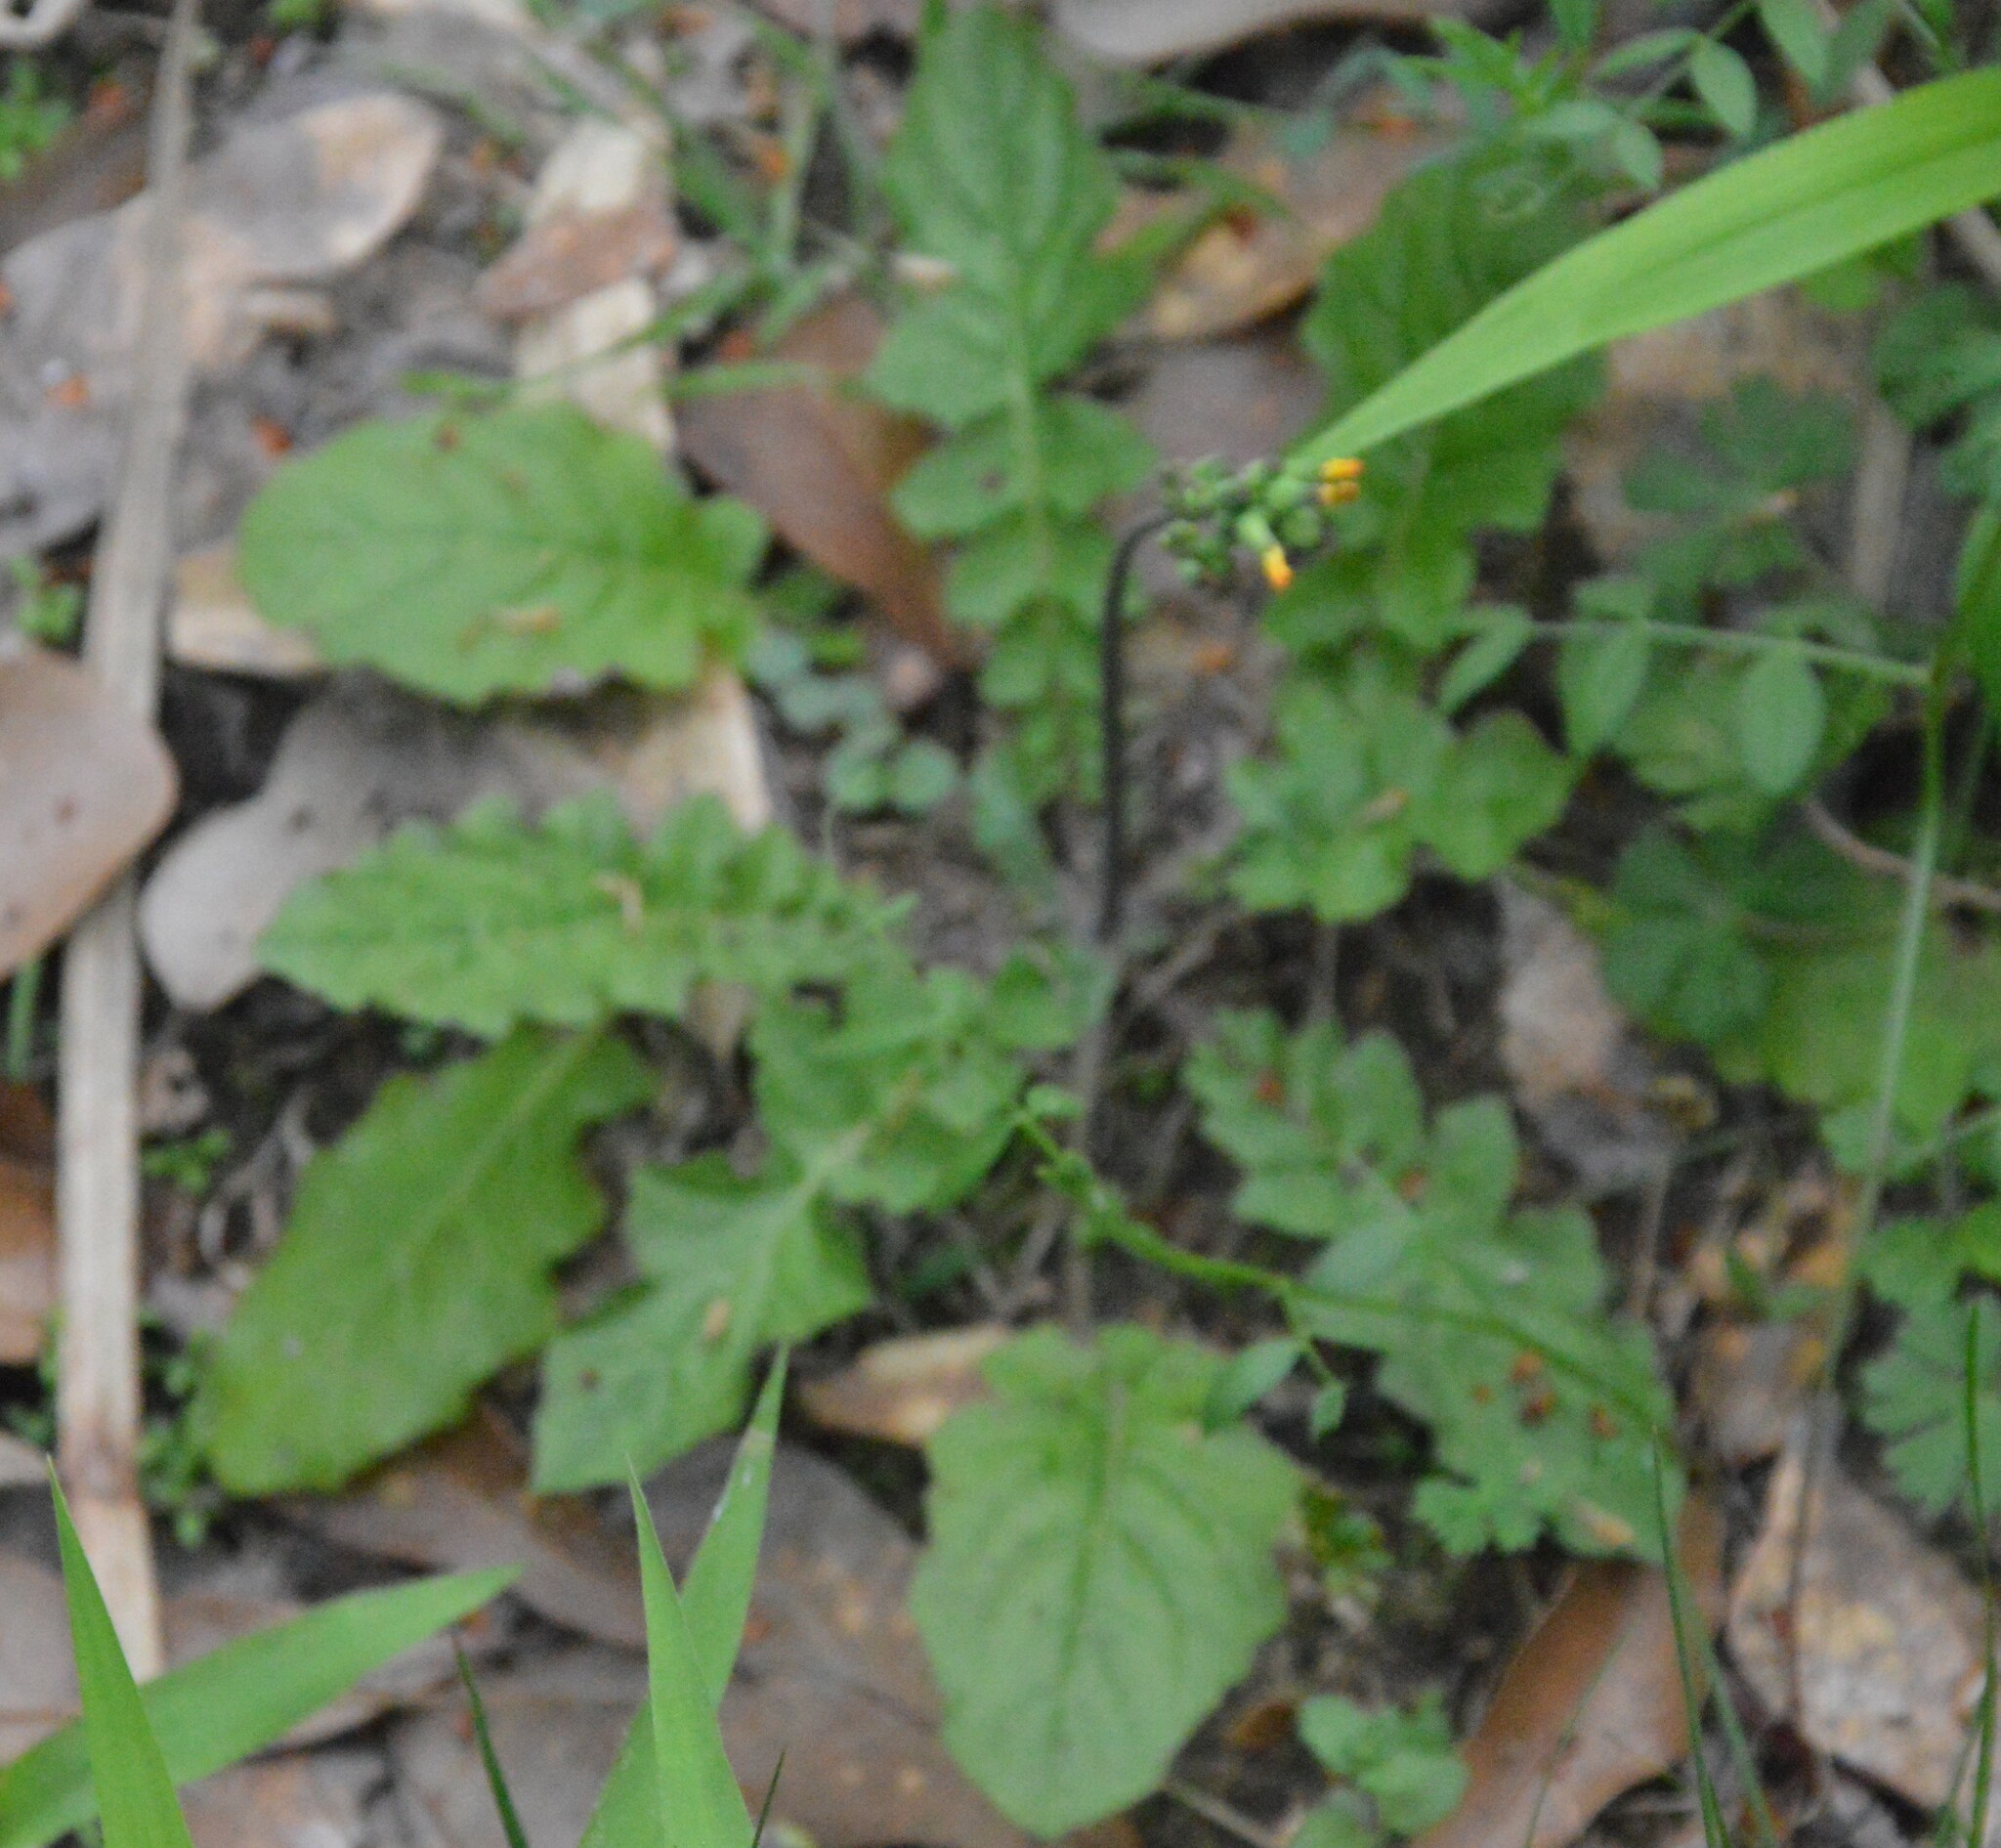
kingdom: Plantae
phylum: Tracheophyta
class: Magnoliopsida
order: Asterales
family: Asteraceae
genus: Youngia
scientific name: Youngia japonica
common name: Oriental false hawksbeard
